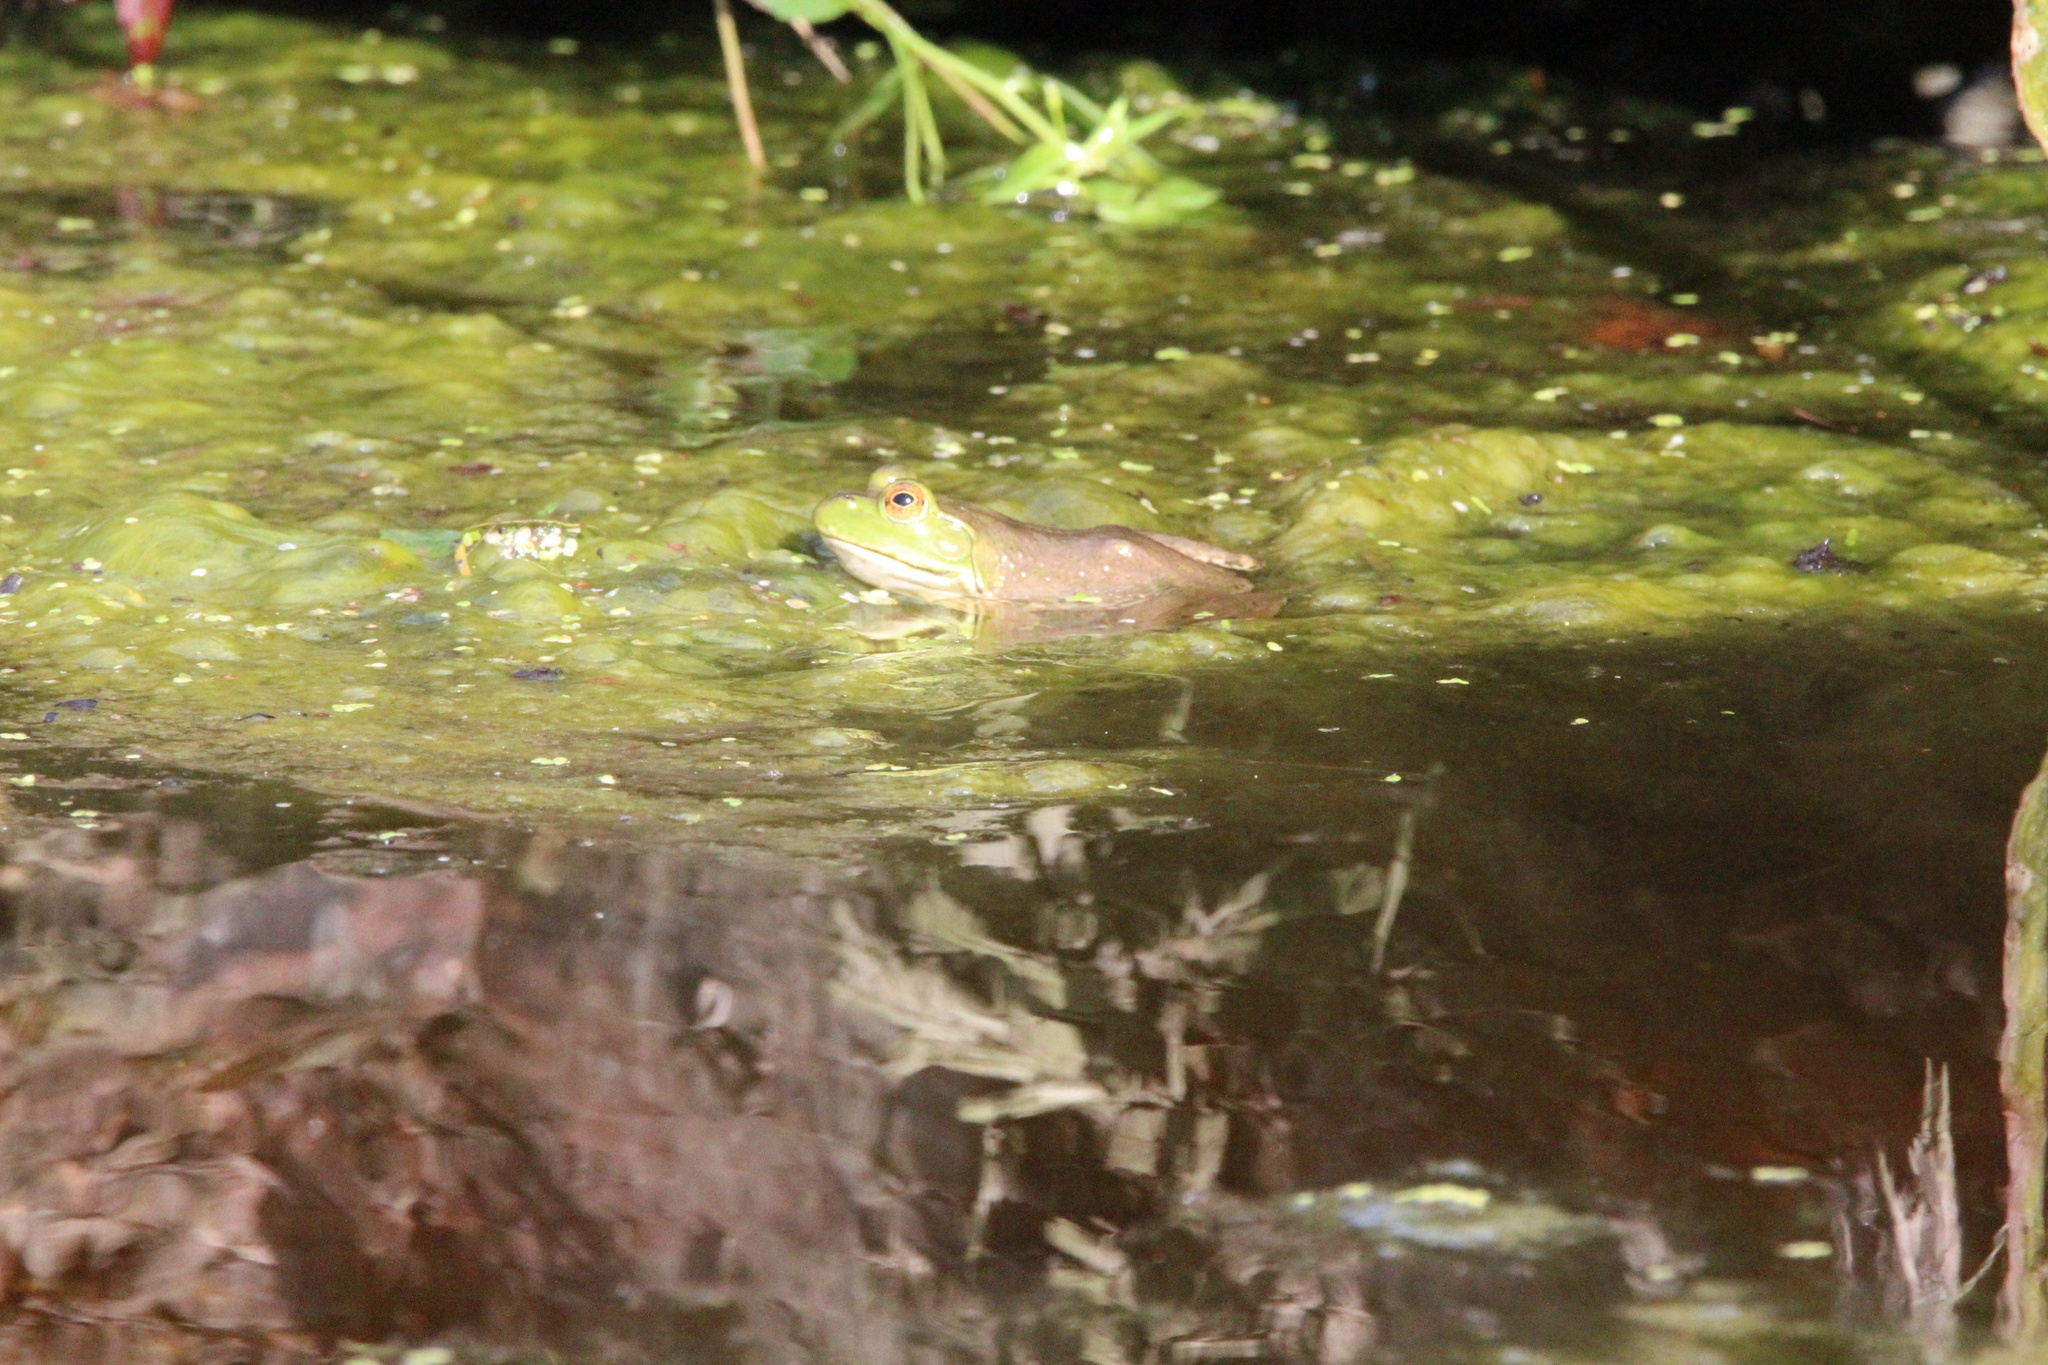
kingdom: Animalia
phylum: Chordata
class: Amphibia
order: Anura
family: Ranidae
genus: Lithobates
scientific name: Lithobates catesbeianus
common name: American bullfrog
